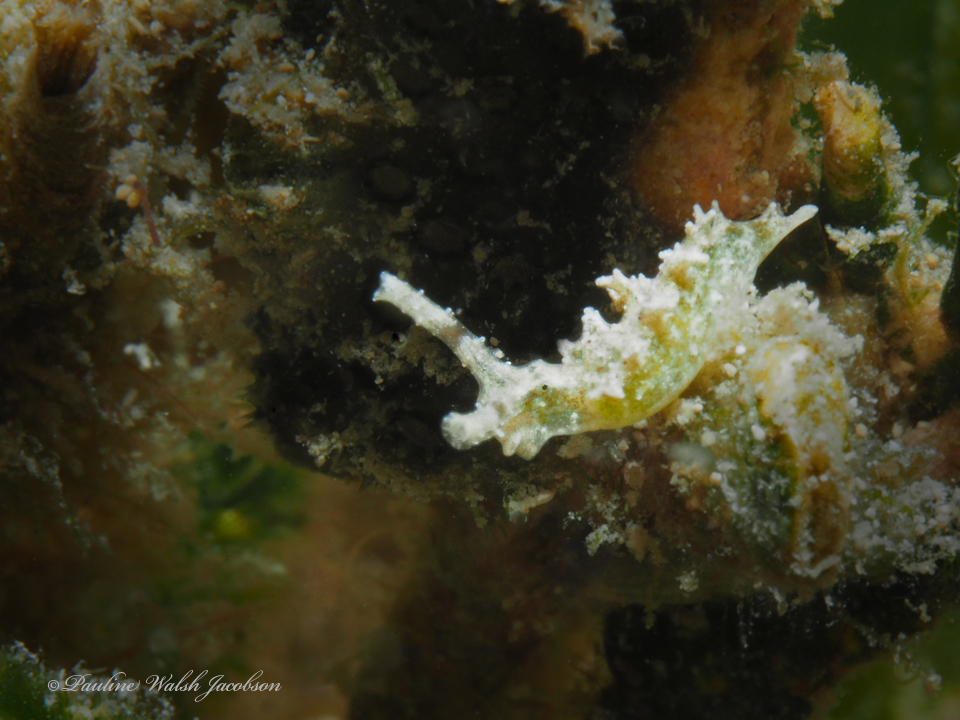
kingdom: Animalia
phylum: Mollusca
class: Gastropoda
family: Plakobranchidae
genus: Elysia
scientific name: Elysia papillosa
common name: Papillose elysia
